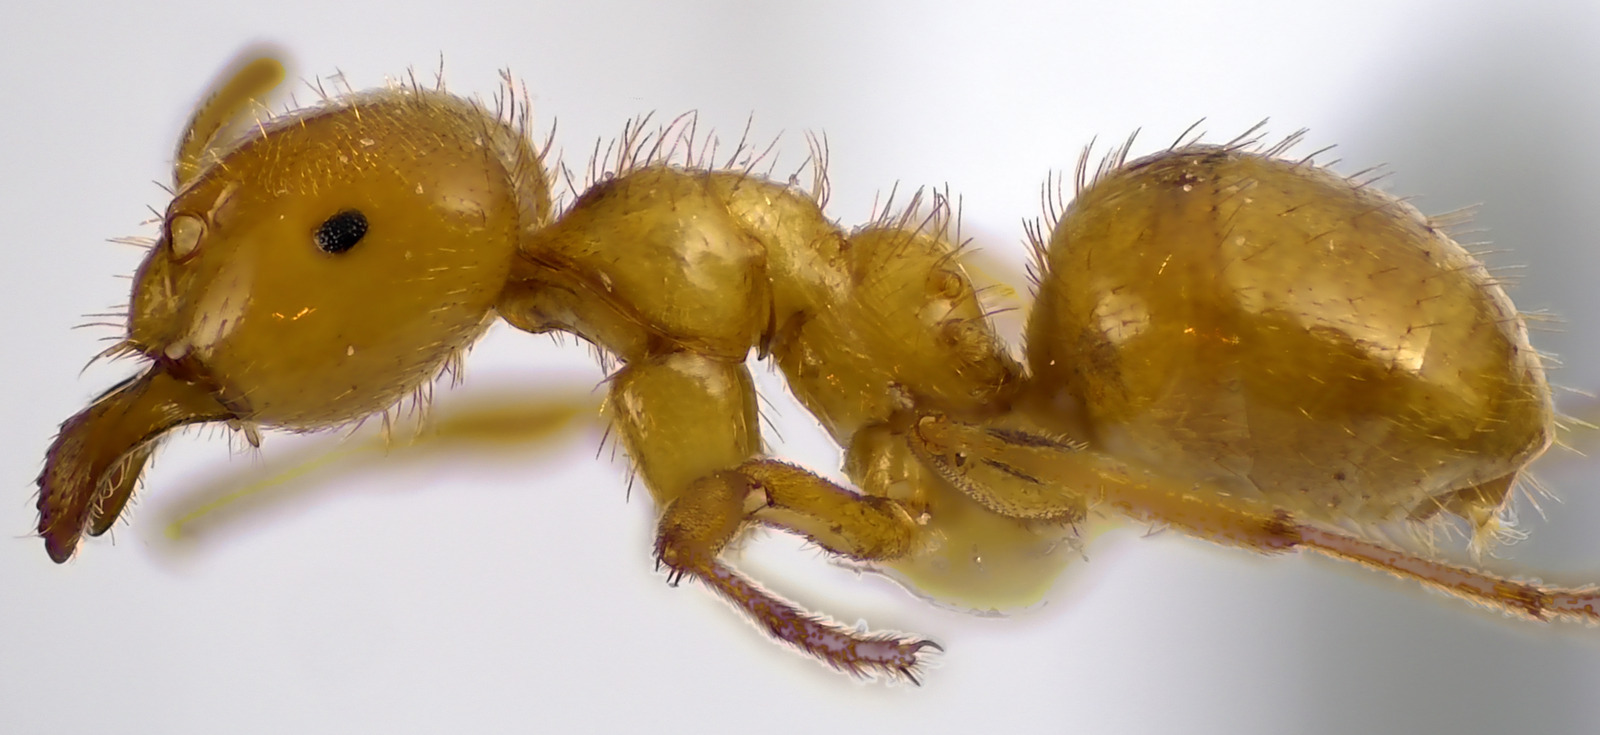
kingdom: Animalia
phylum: Arthropoda
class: Insecta
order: Hymenoptera
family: Formicidae
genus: Lasius
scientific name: Lasius claviger
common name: Common citronella ant
